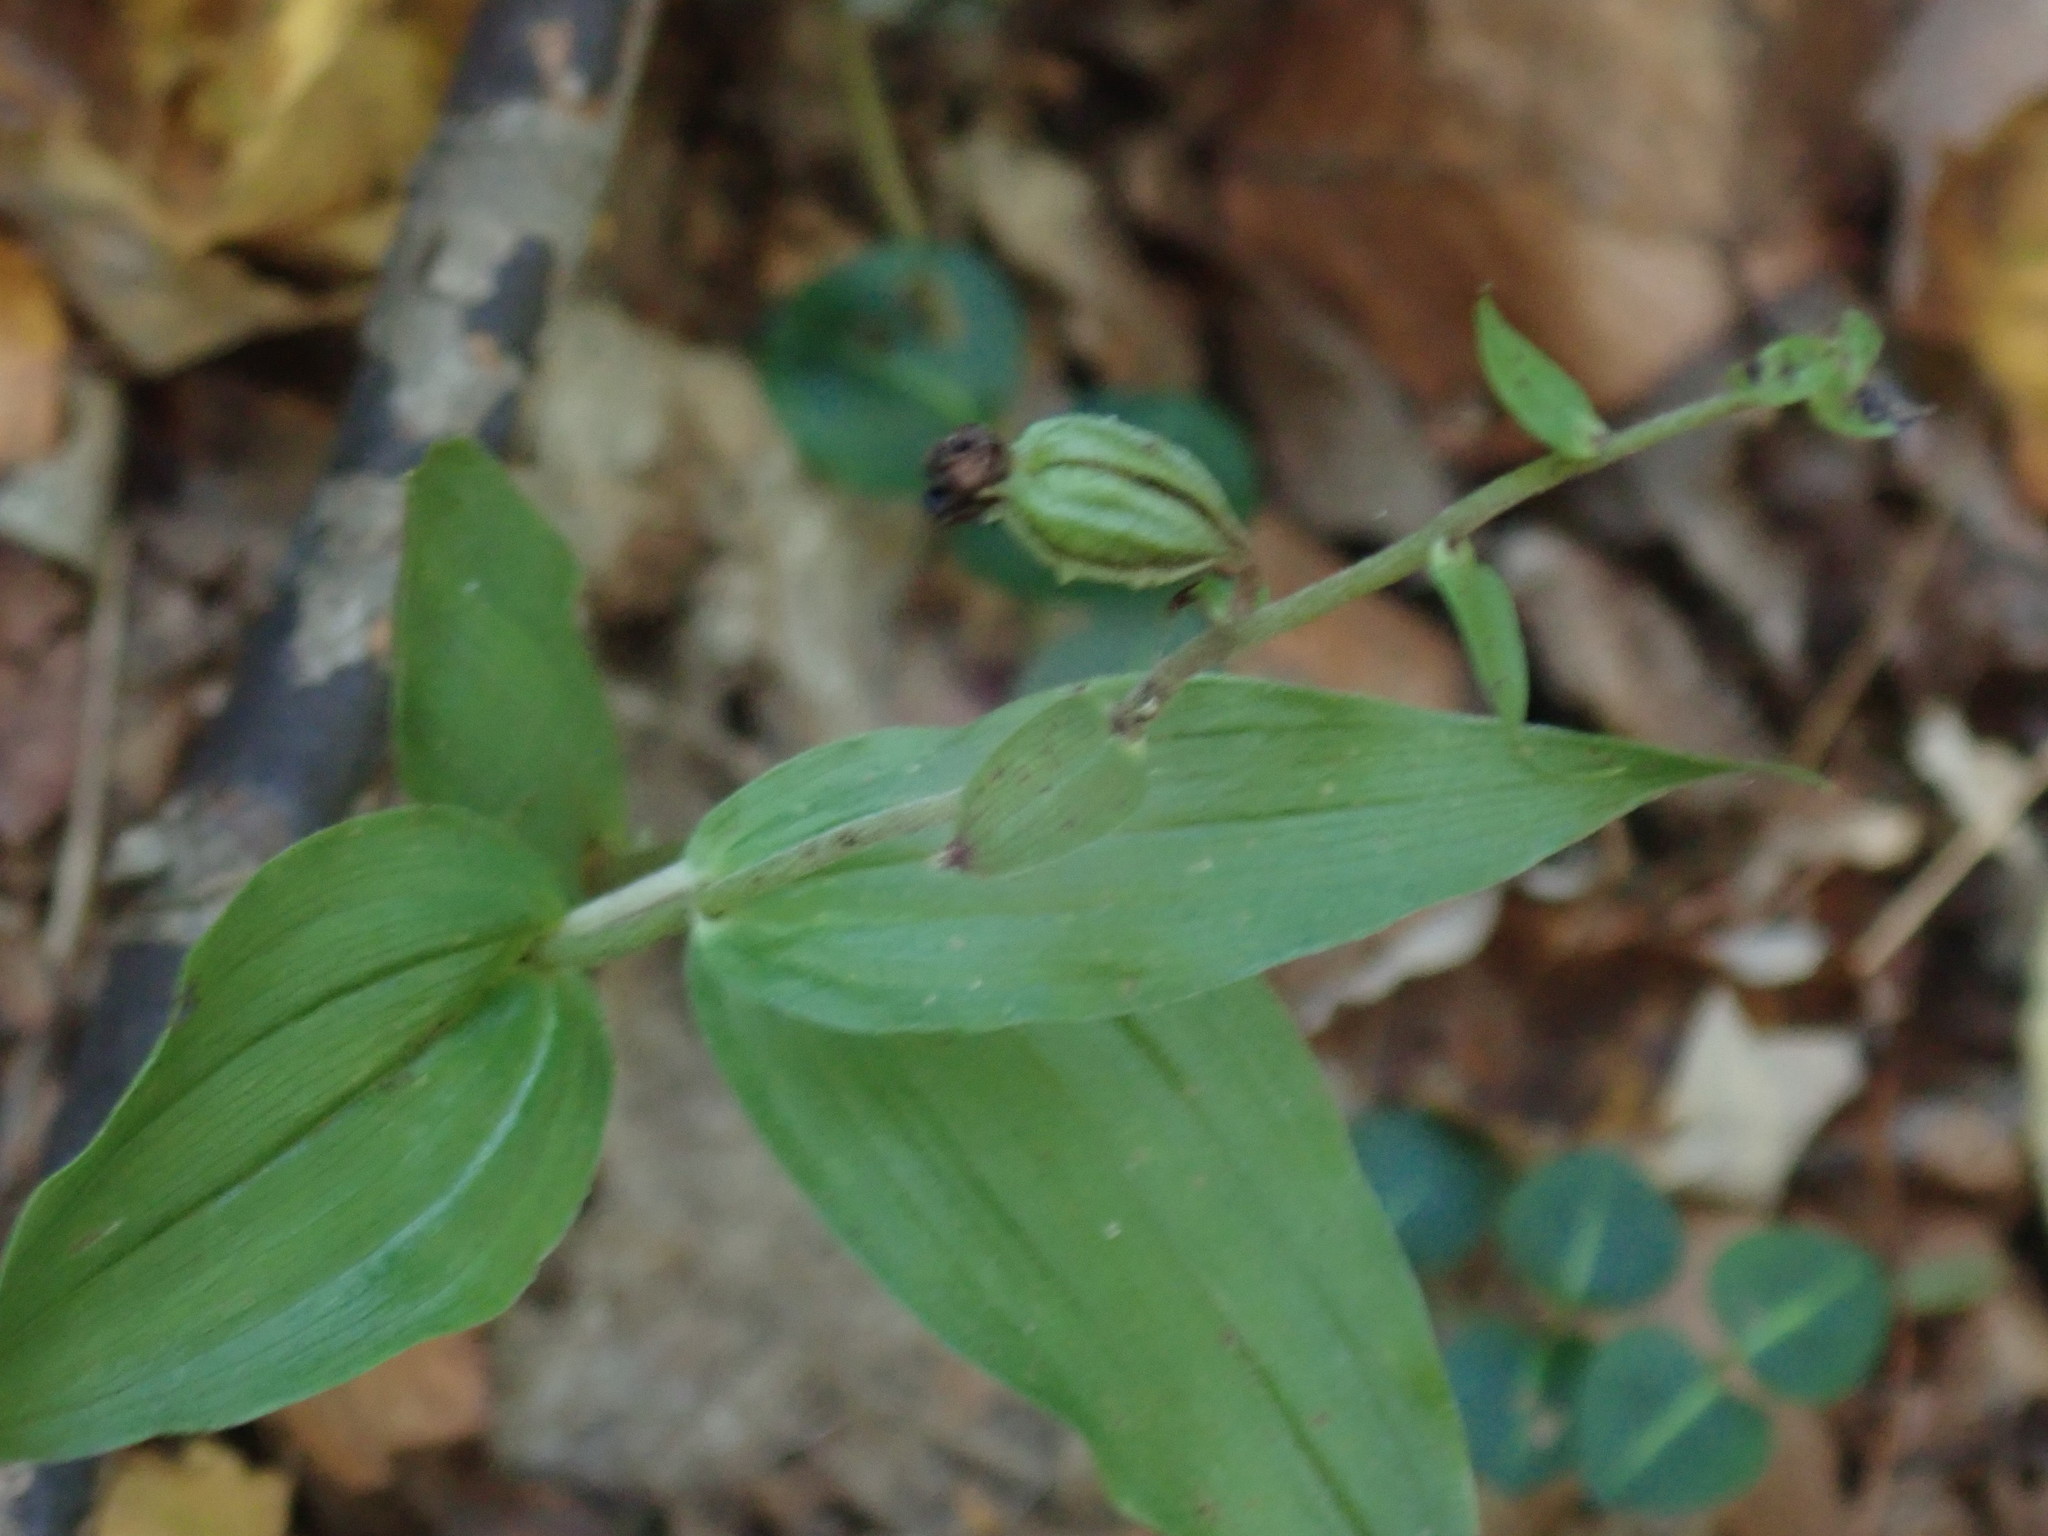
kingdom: Plantae
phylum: Tracheophyta
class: Liliopsida
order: Asparagales
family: Orchidaceae
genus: Epipactis
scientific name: Epipactis helleborine
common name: Broad-leaved helleborine
